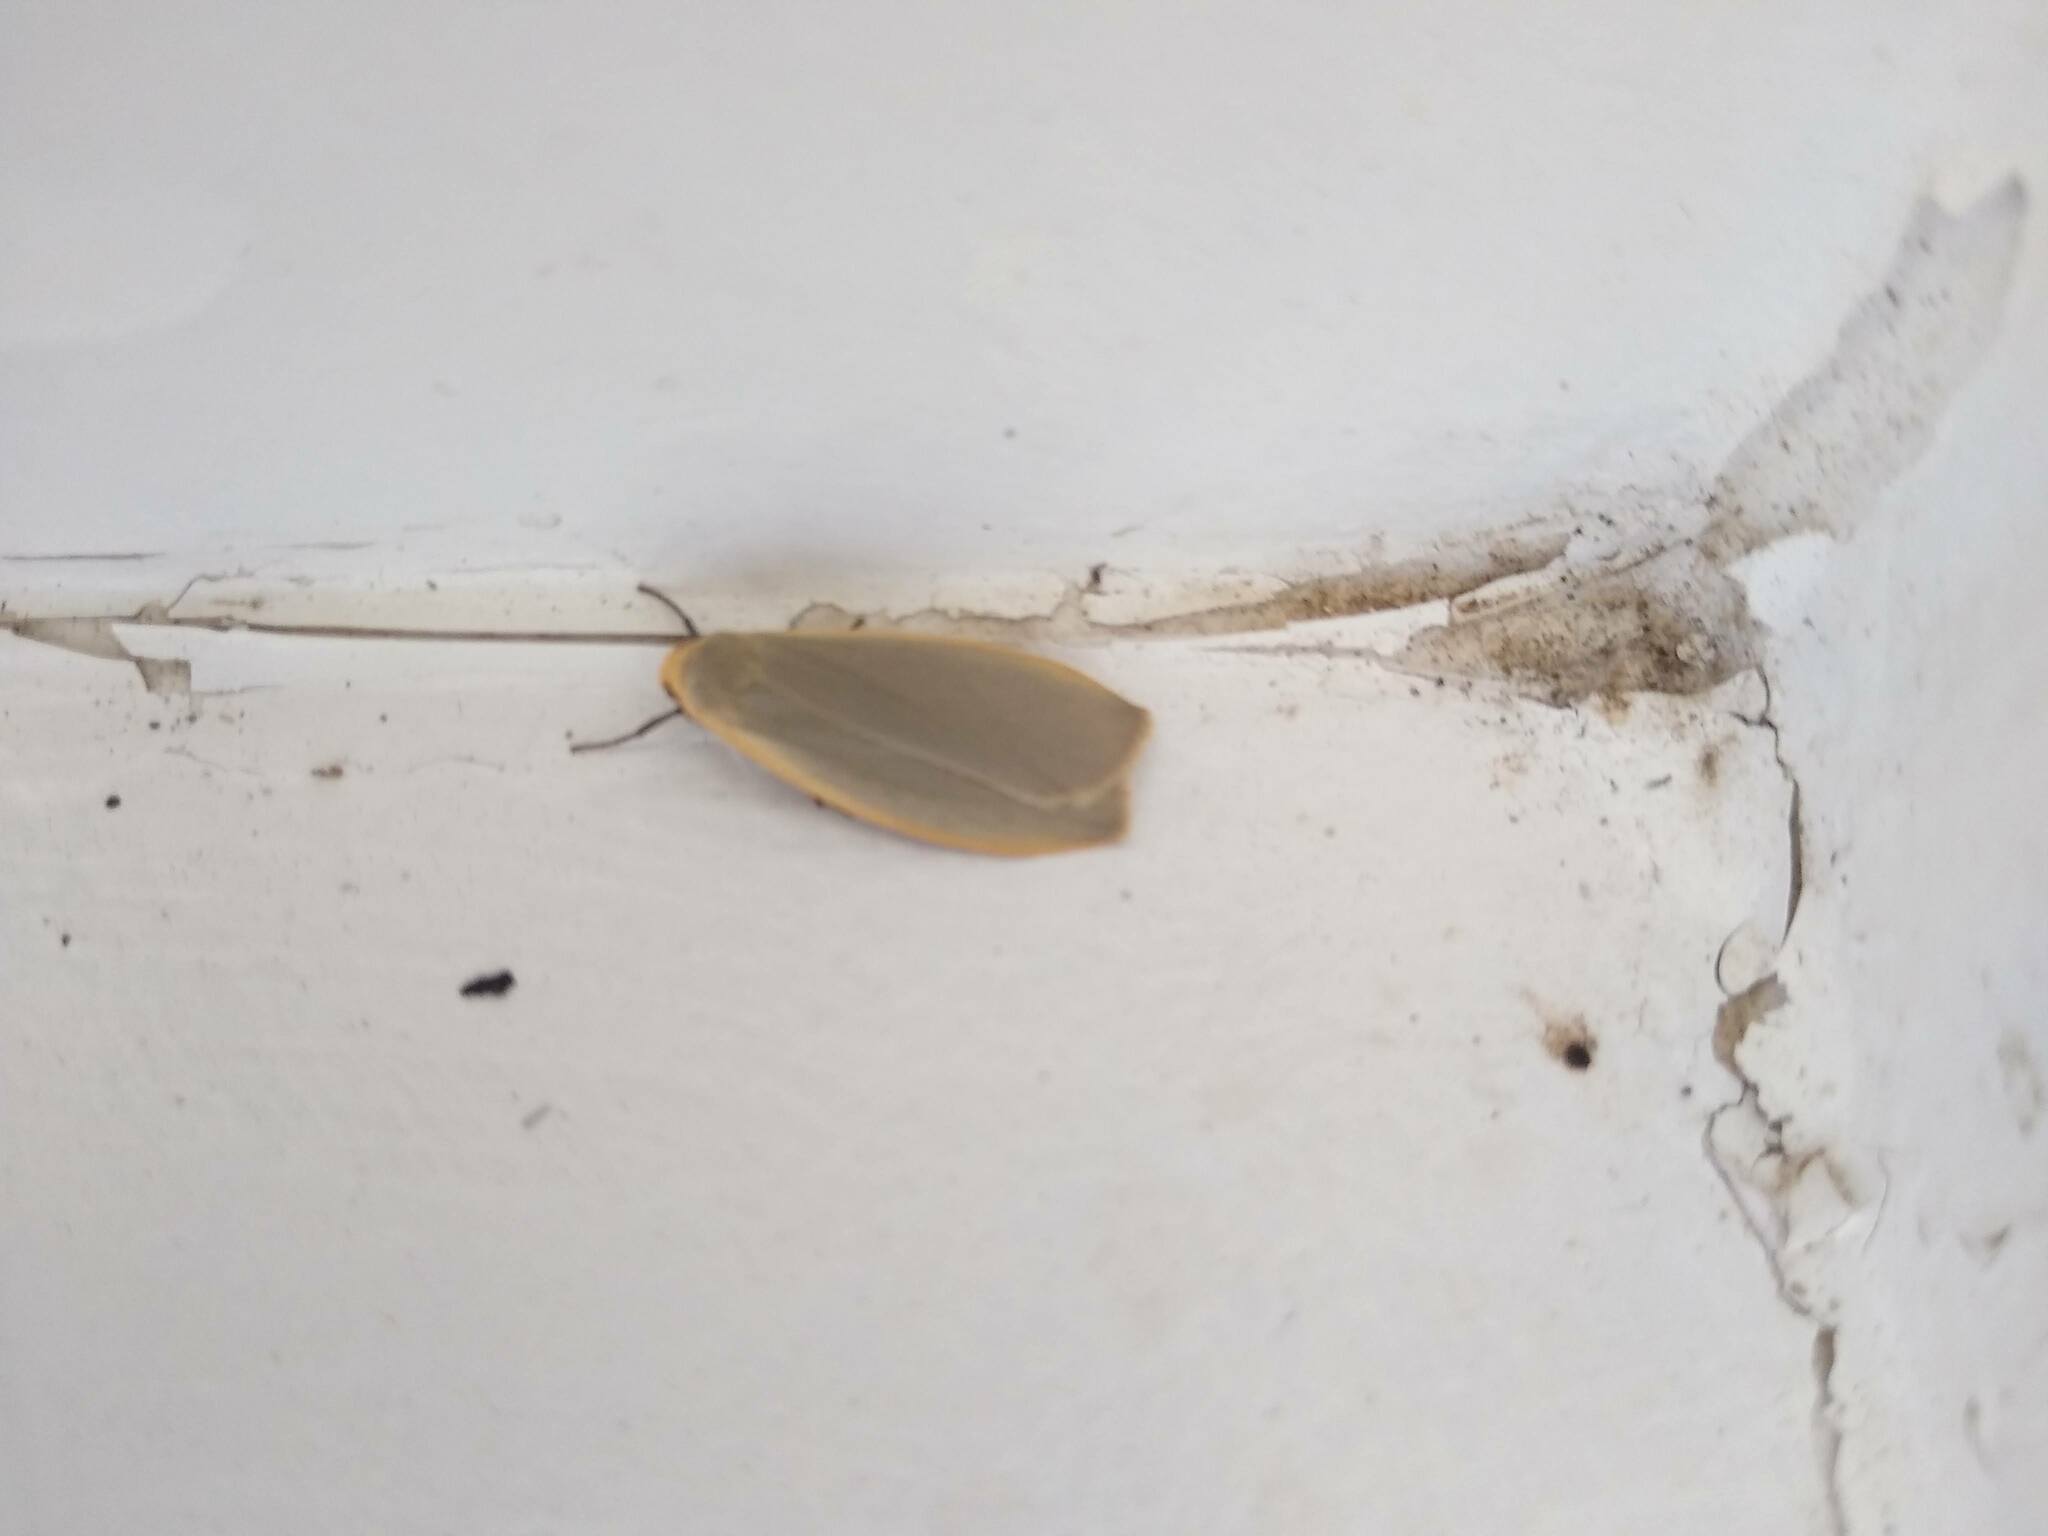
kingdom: Animalia
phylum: Arthropoda
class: Insecta
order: Lepidoptera
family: Erebidae
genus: Collita
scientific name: Collita griseola
